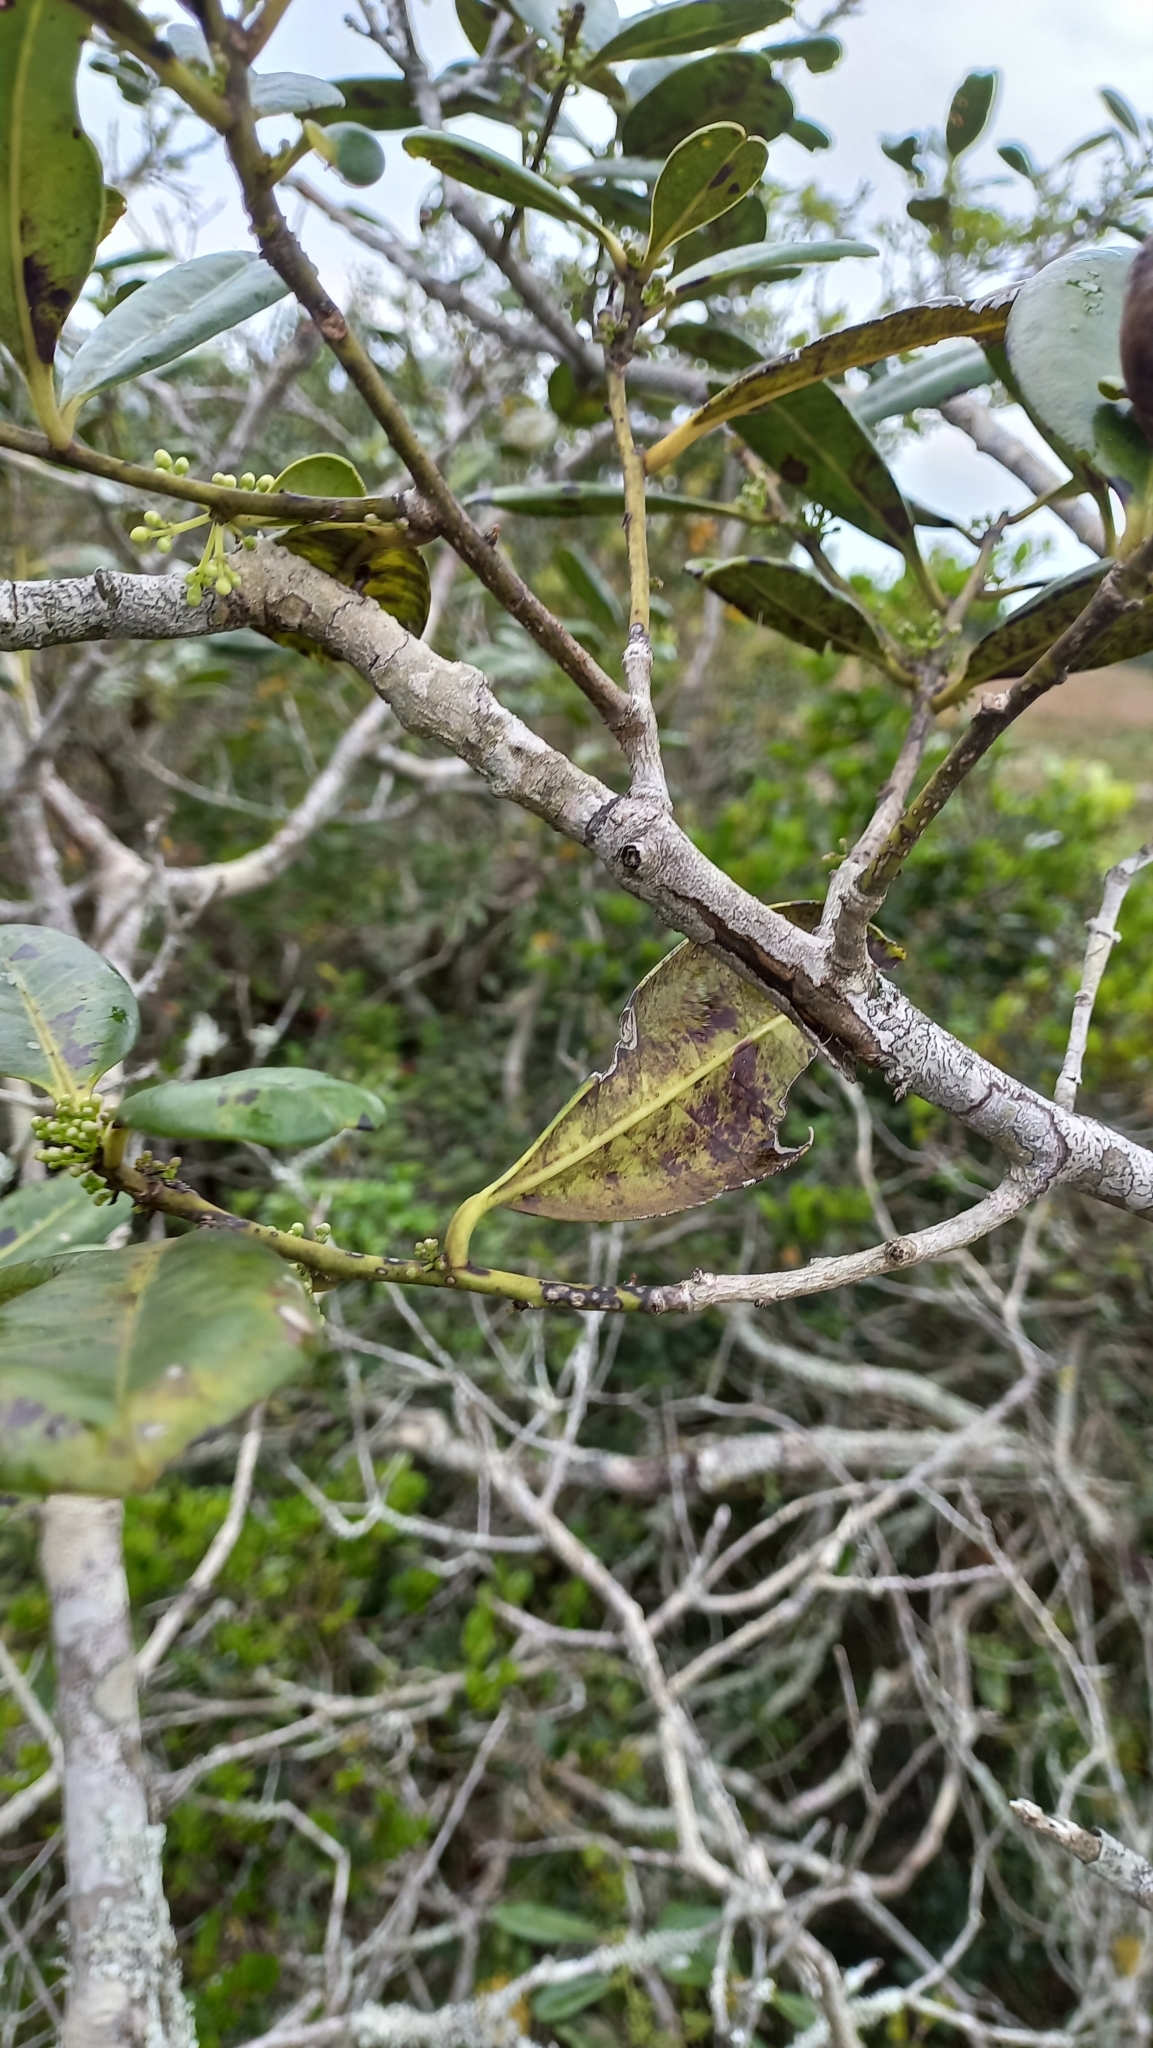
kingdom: Plantae
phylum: Tracheophyta
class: Magnoliopsida
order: Aquifoliales
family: Aquifoliaceae
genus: Ilex
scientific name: Ilex theezans
